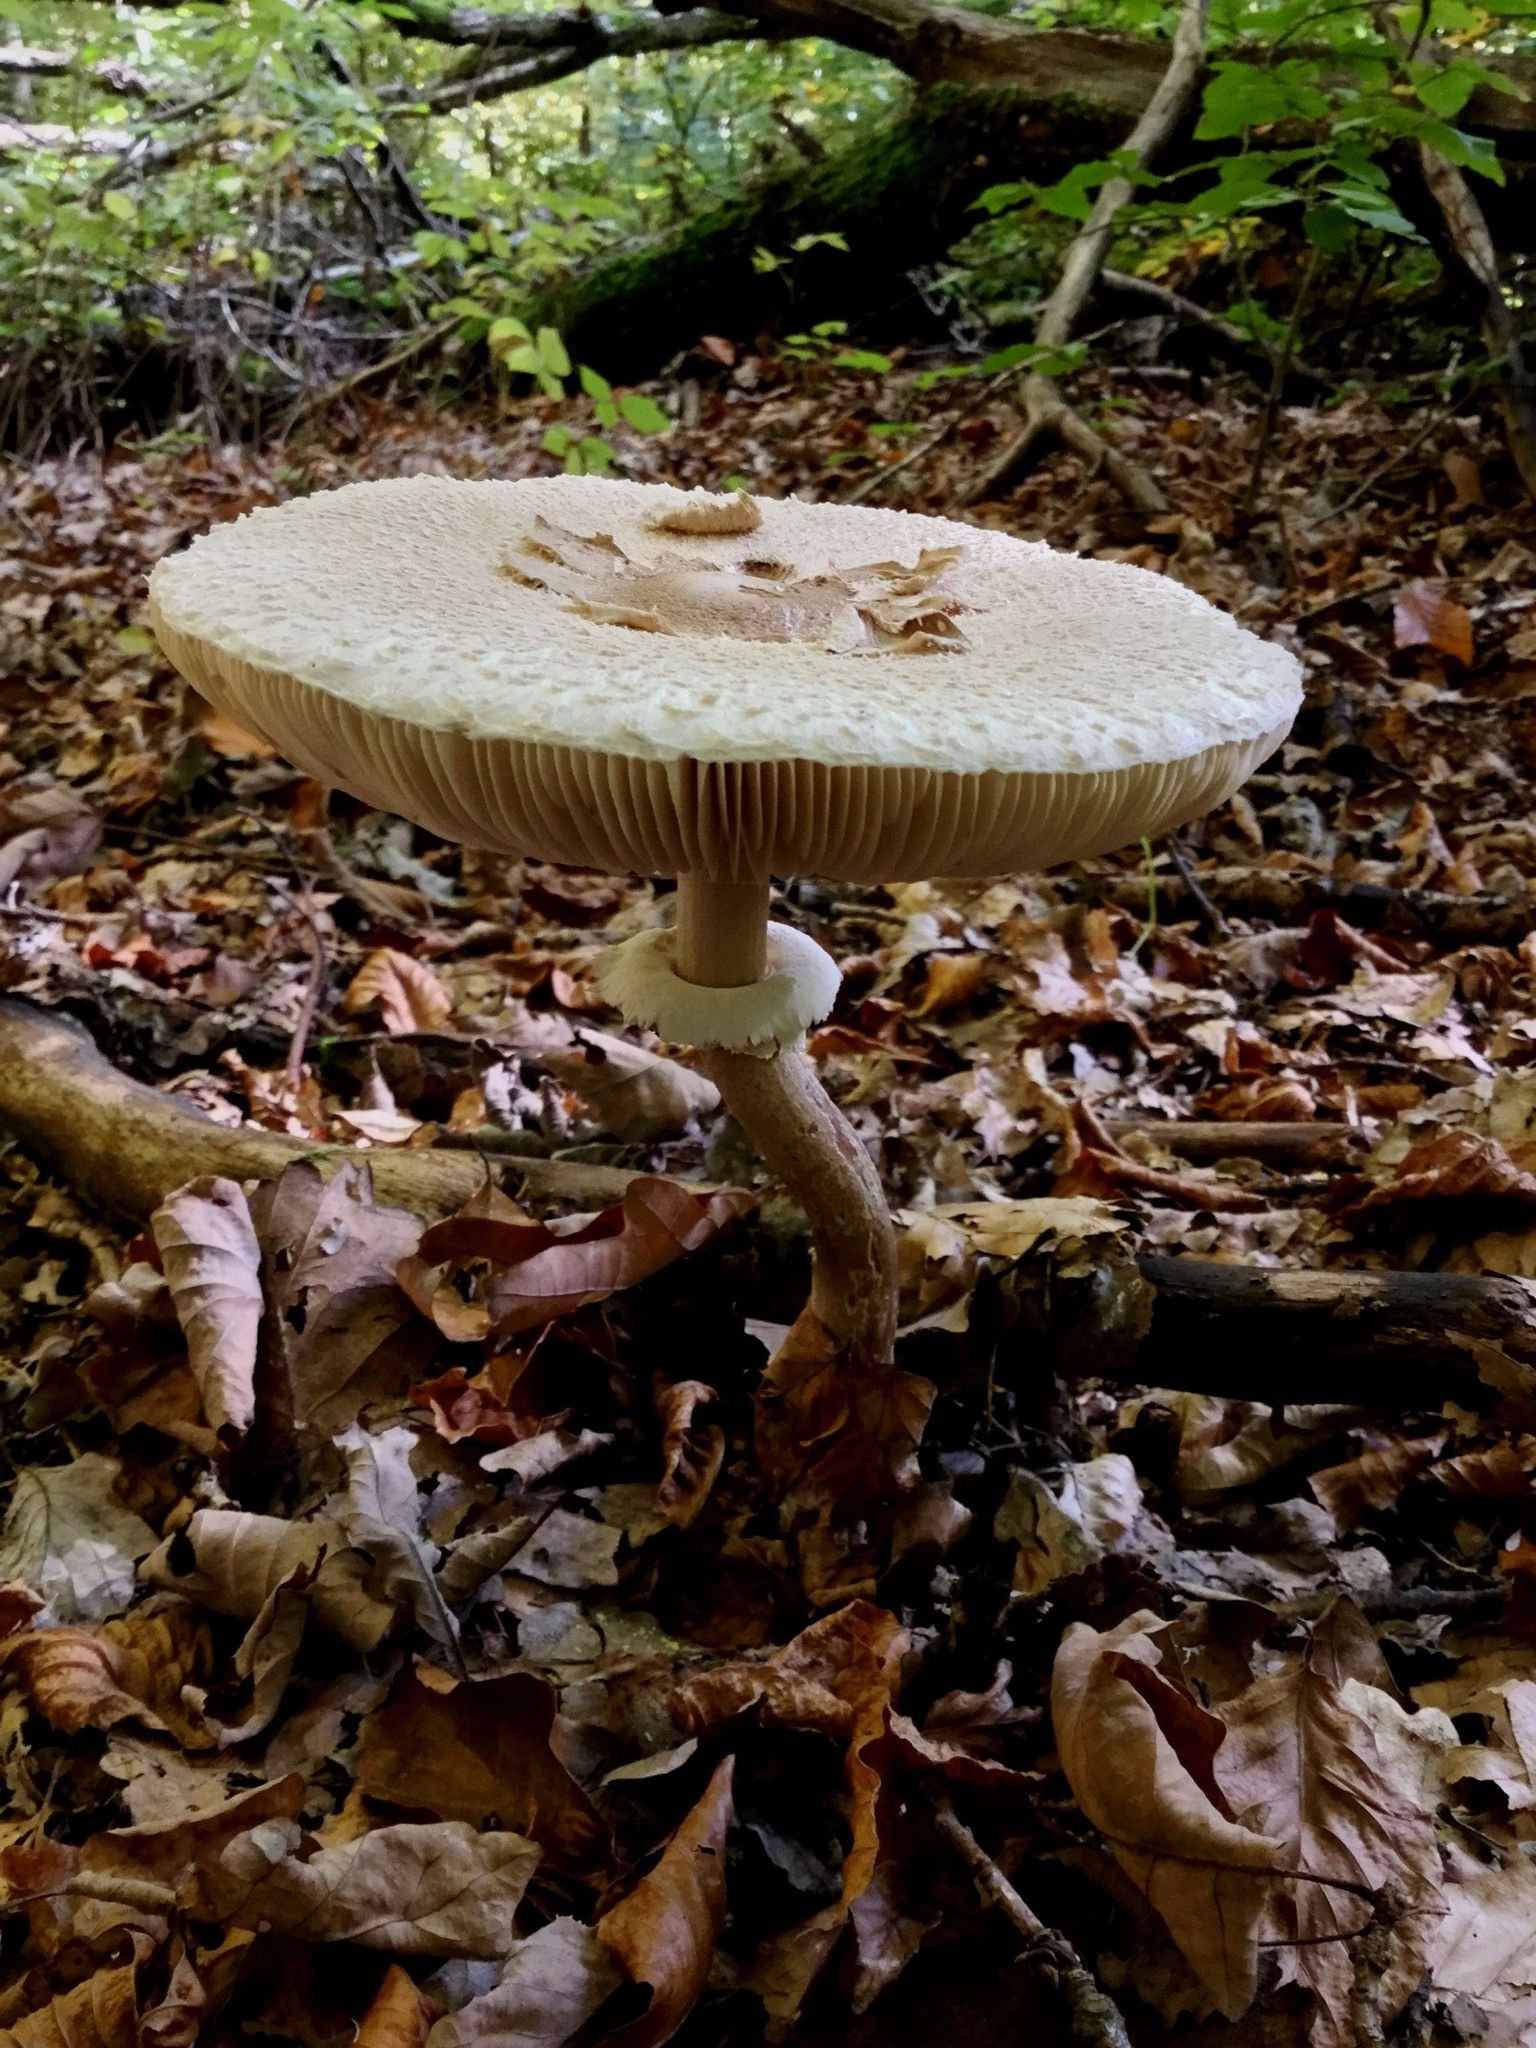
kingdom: Fungi
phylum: Basidiomycota
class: Agaricomycetes
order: Agaricales
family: Agaricaceae
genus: Macrolepiota
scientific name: Macrolepiota procera
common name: Parasol
